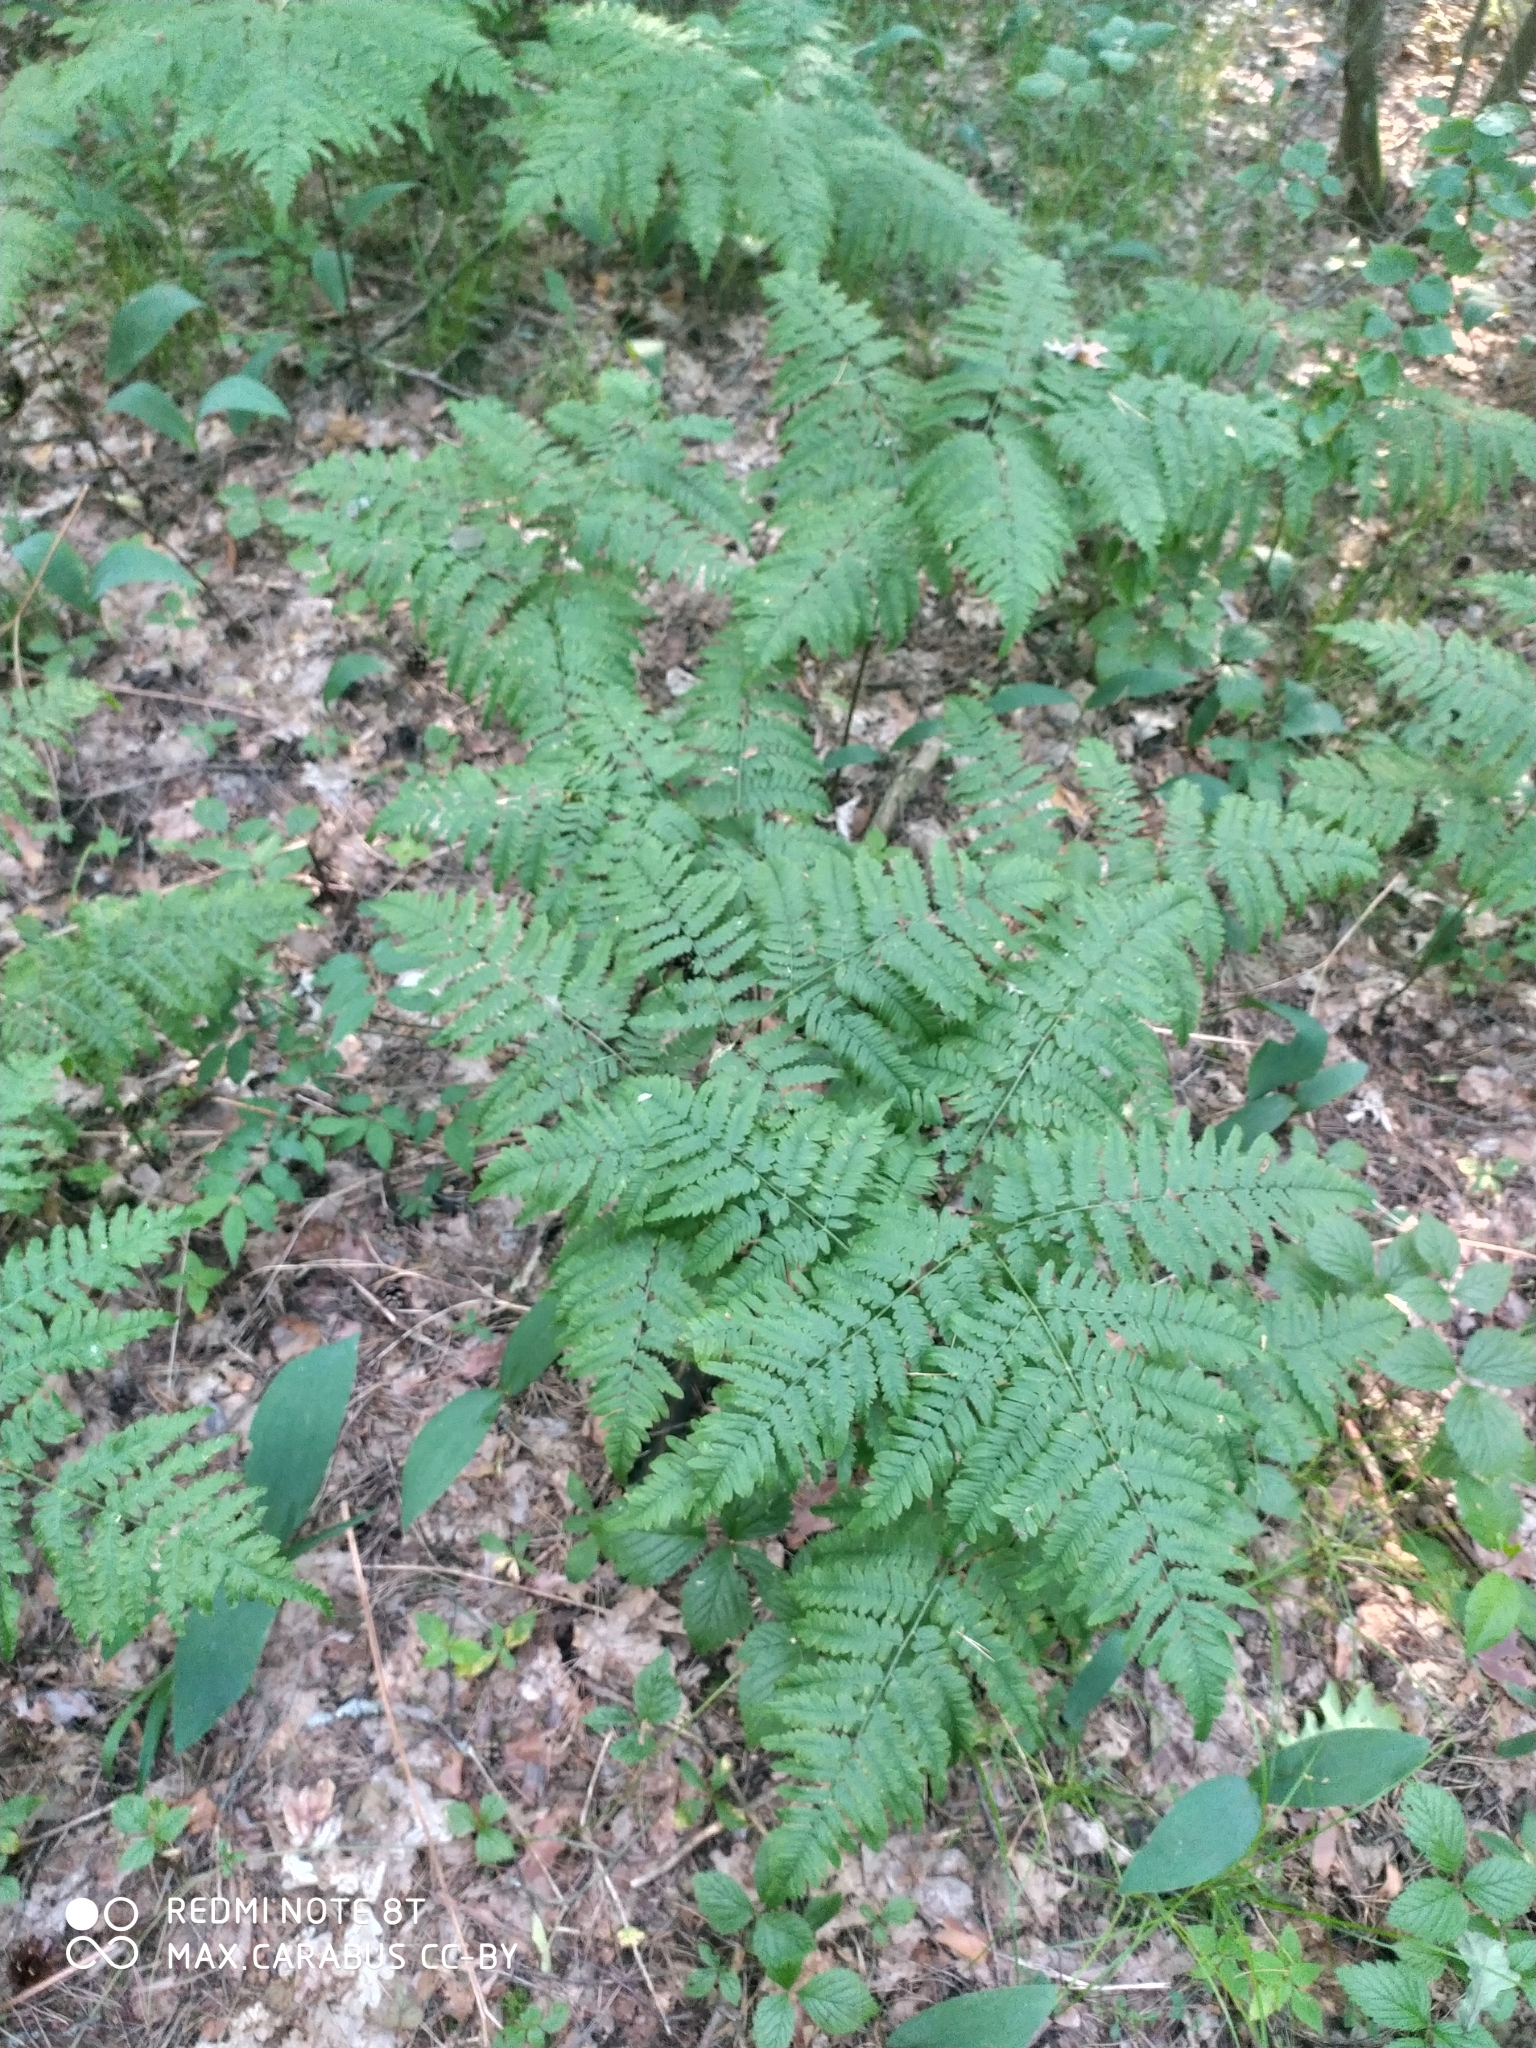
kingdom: Plantae
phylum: Tracheophyta
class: Polypodiopsida
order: Polypodiales
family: Dennstaedtiaceae
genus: Pteridium
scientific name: Pteridium aquilinum
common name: Bracken
